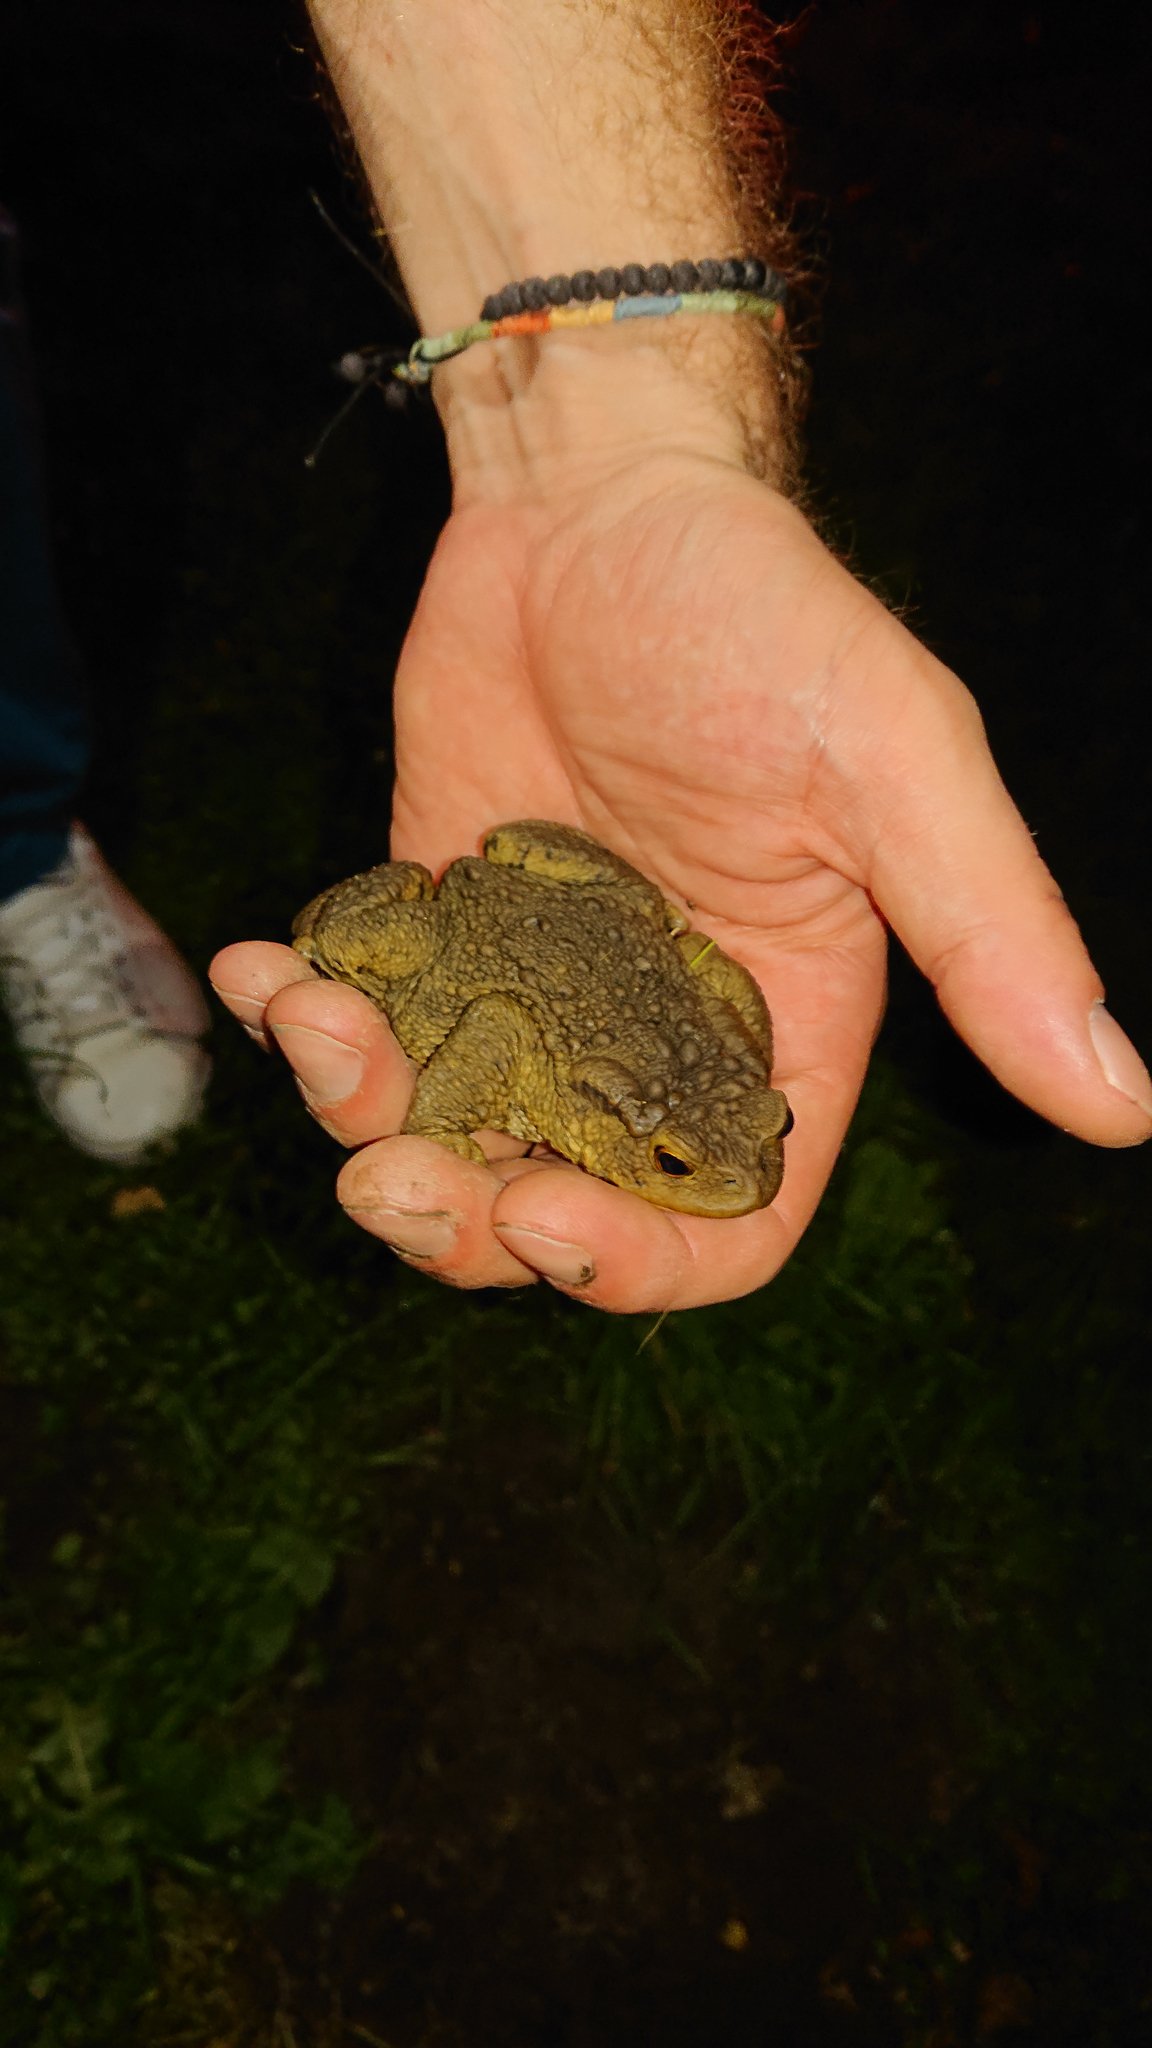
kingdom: Animalia
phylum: Chordata
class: Amphibia
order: Anura
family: Bufonidae
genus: Bufo
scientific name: Bufo bufo
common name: Common toad
